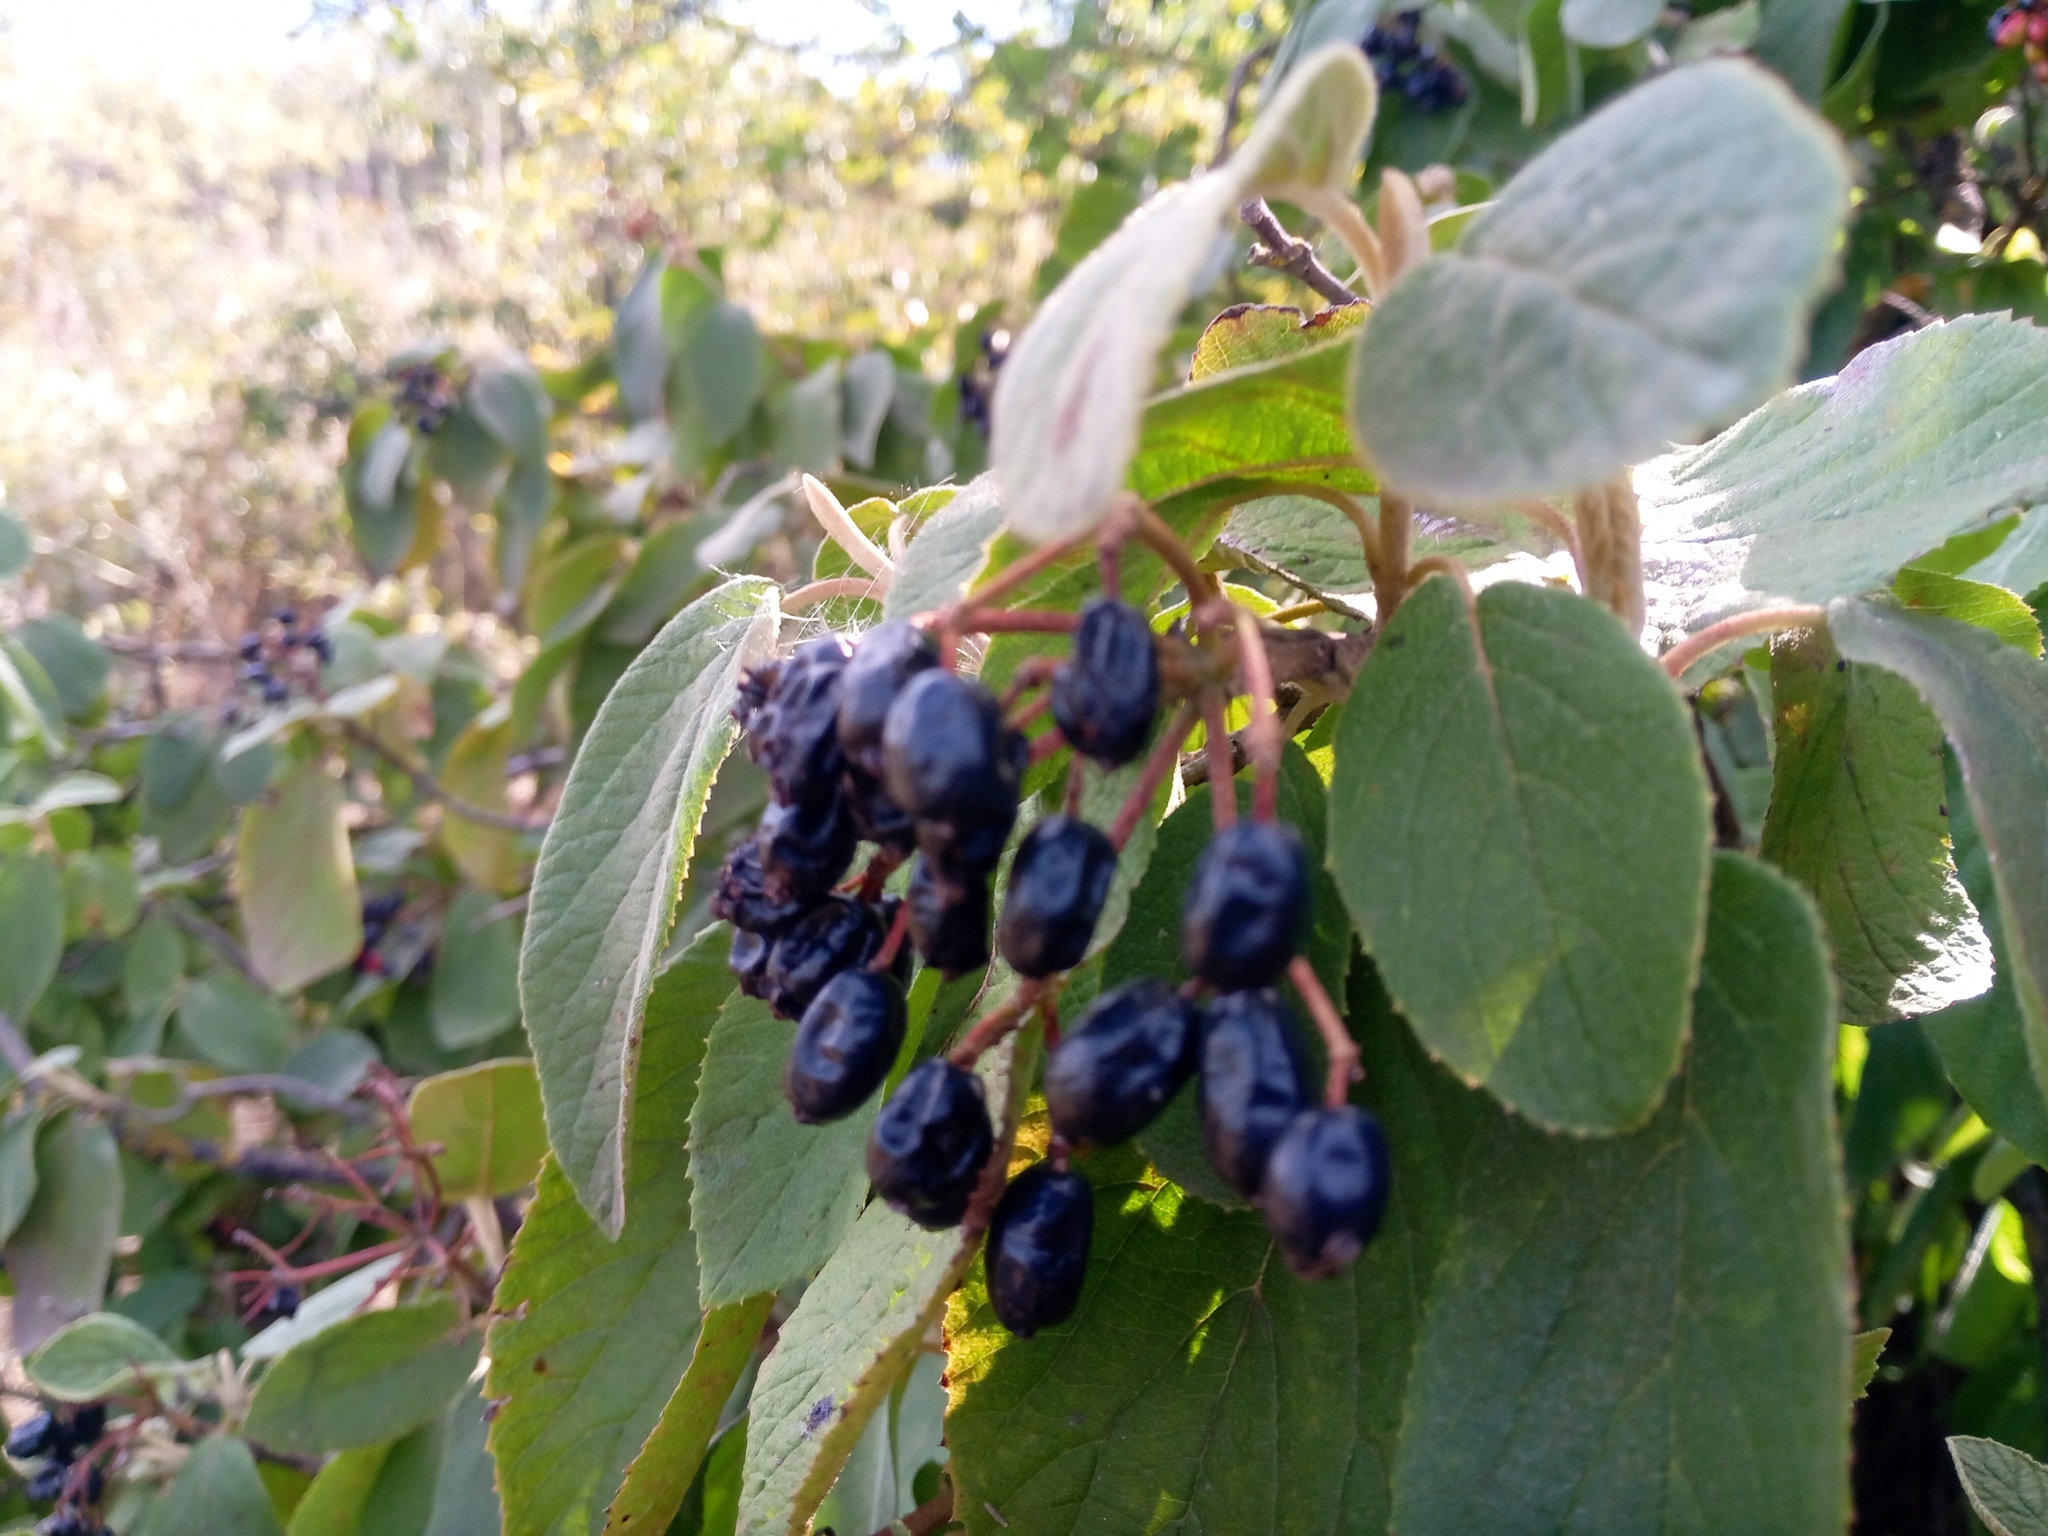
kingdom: Plantae
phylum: Tracheophyta
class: Magnoliopsida
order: Dipsacales
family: Viburnaceae
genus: Viburnum
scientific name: Viburnum lantana
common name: Wayfaring tree
